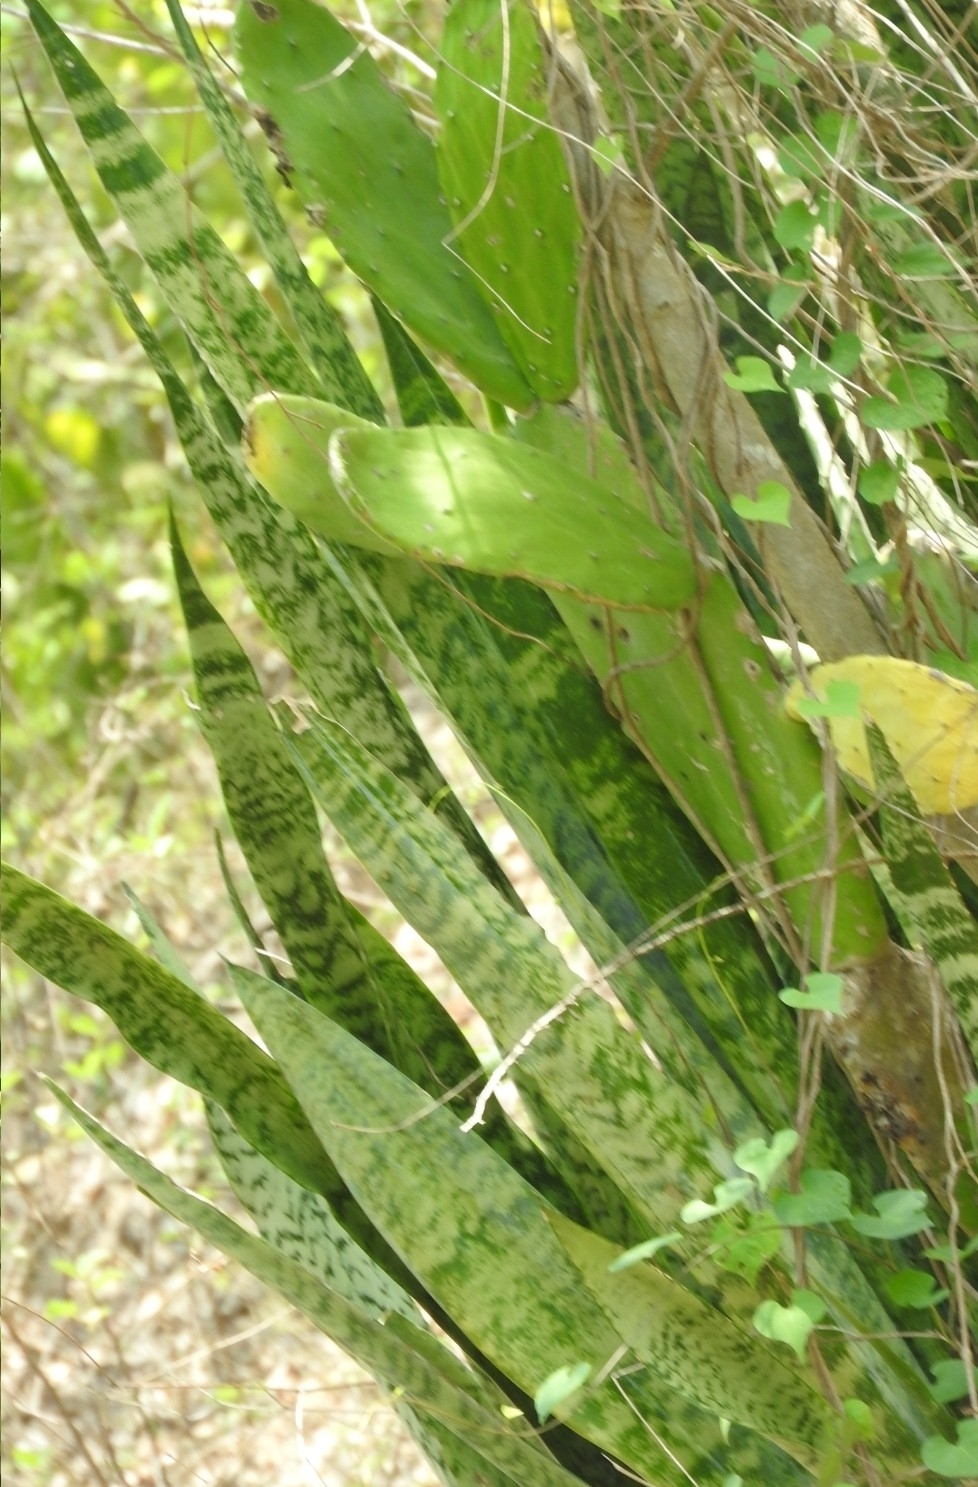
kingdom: Plantae
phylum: Tracheophyta
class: Liliopsida
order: Asparagales
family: Asparagaceae
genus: Dracaena
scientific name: Dracaena hyacinthoides
